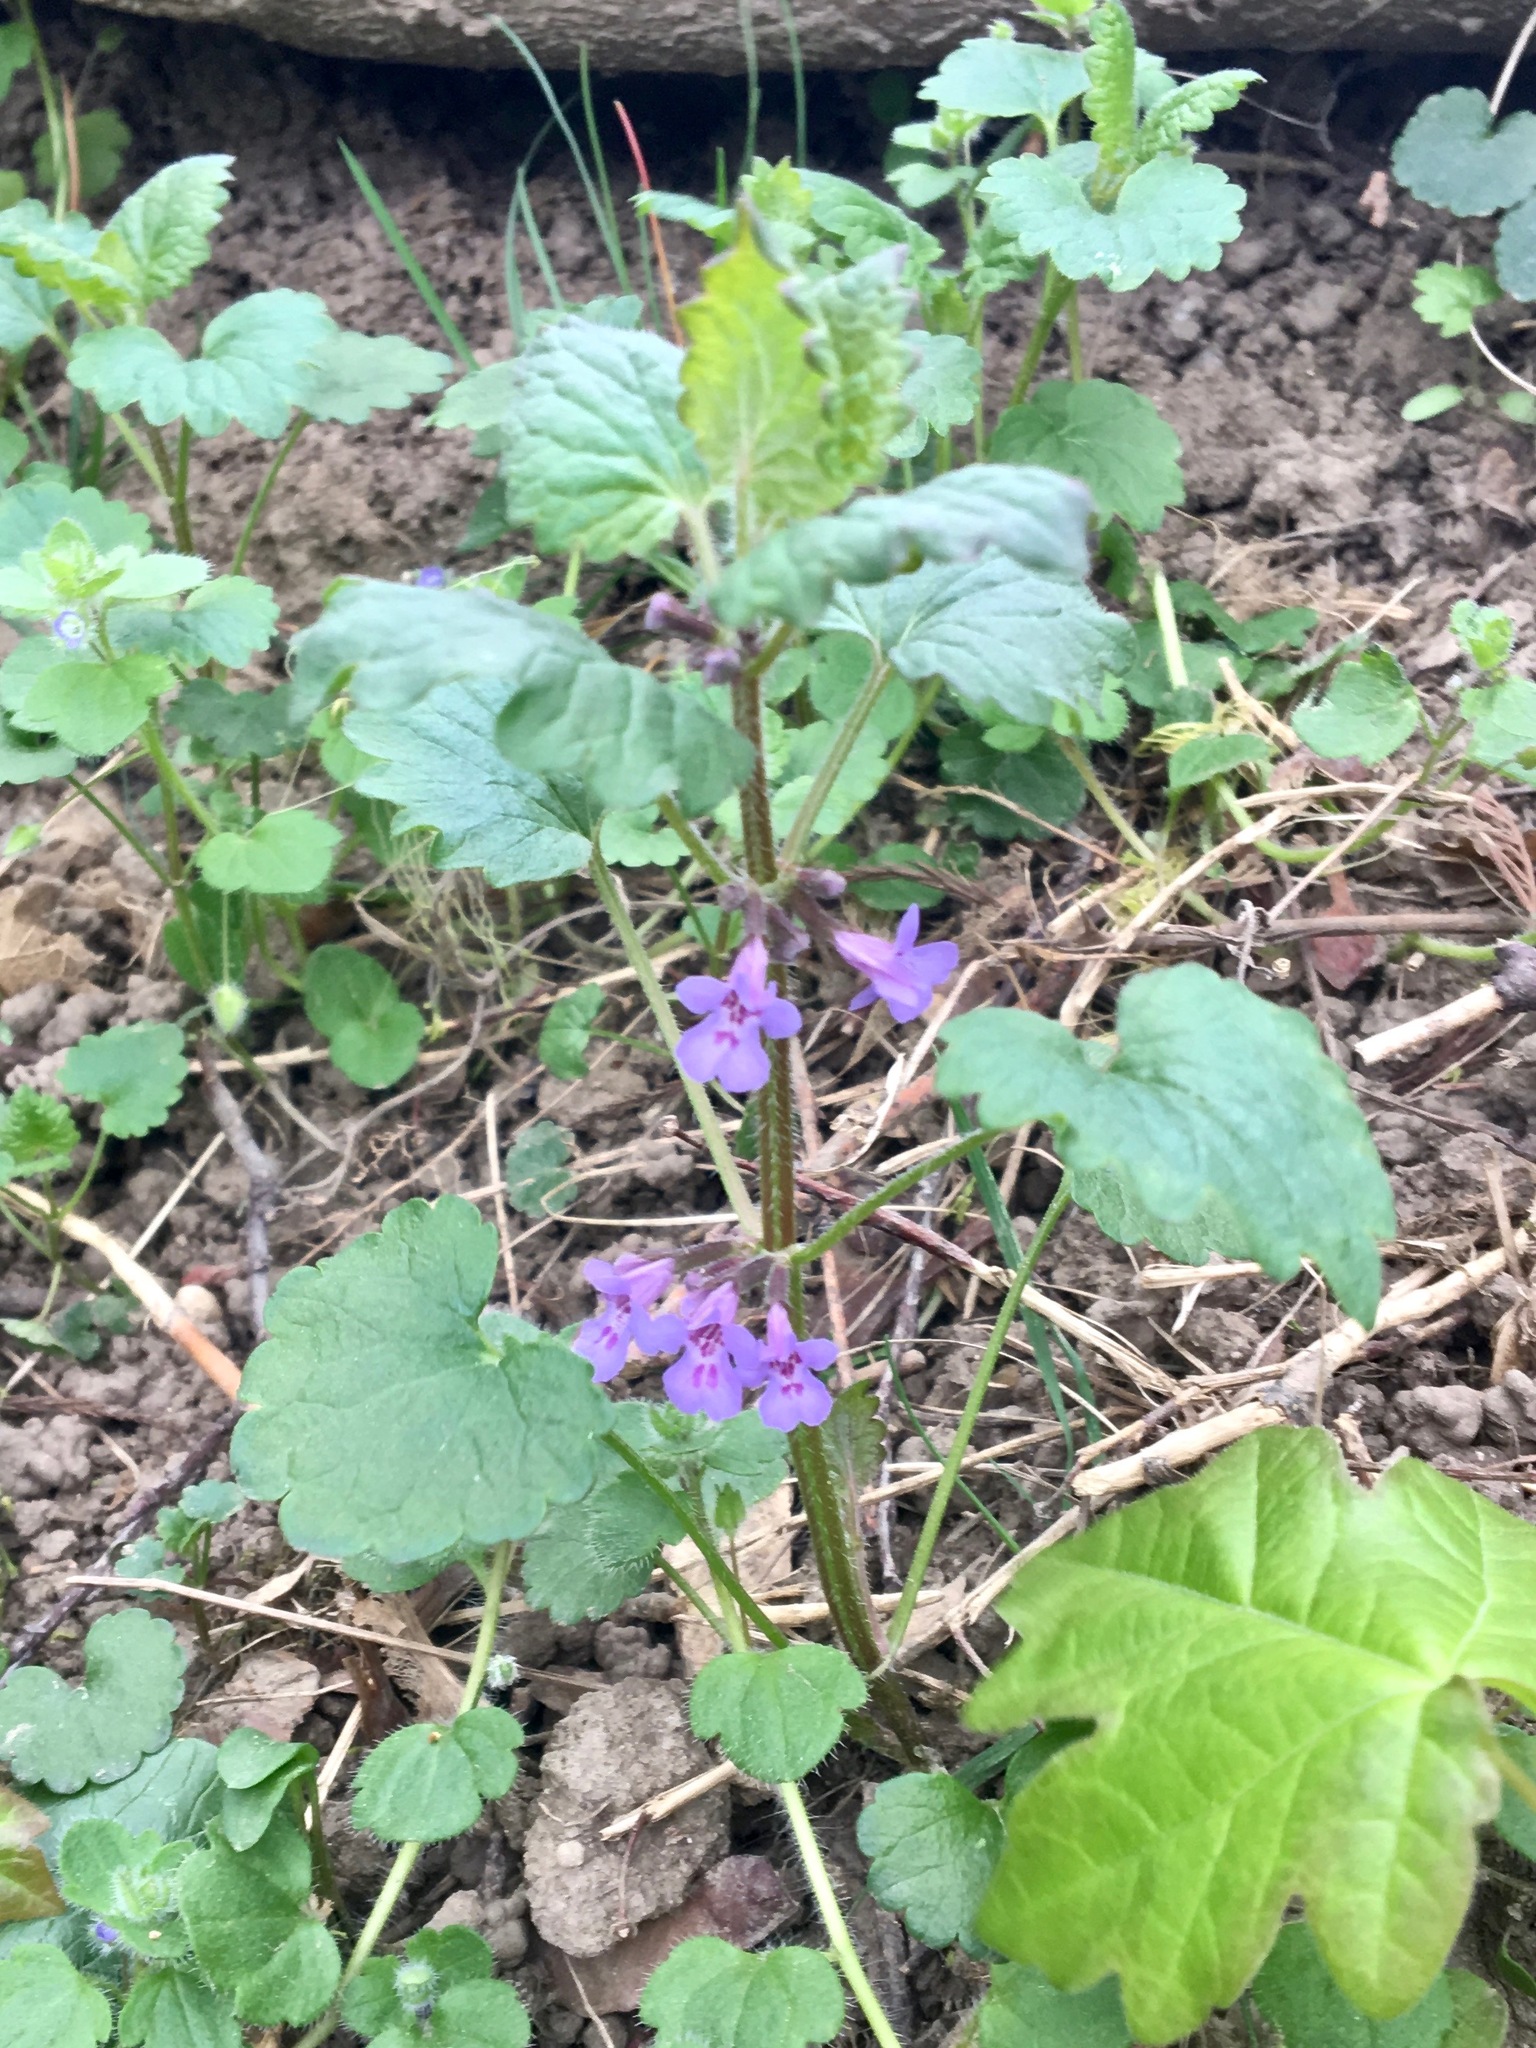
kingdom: Plantae
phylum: Tracheophyta
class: Magnoliopsida
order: Lamiales
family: Lamiaceae
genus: Glechoma
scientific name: Glechoma hederacea
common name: Ground ivy
